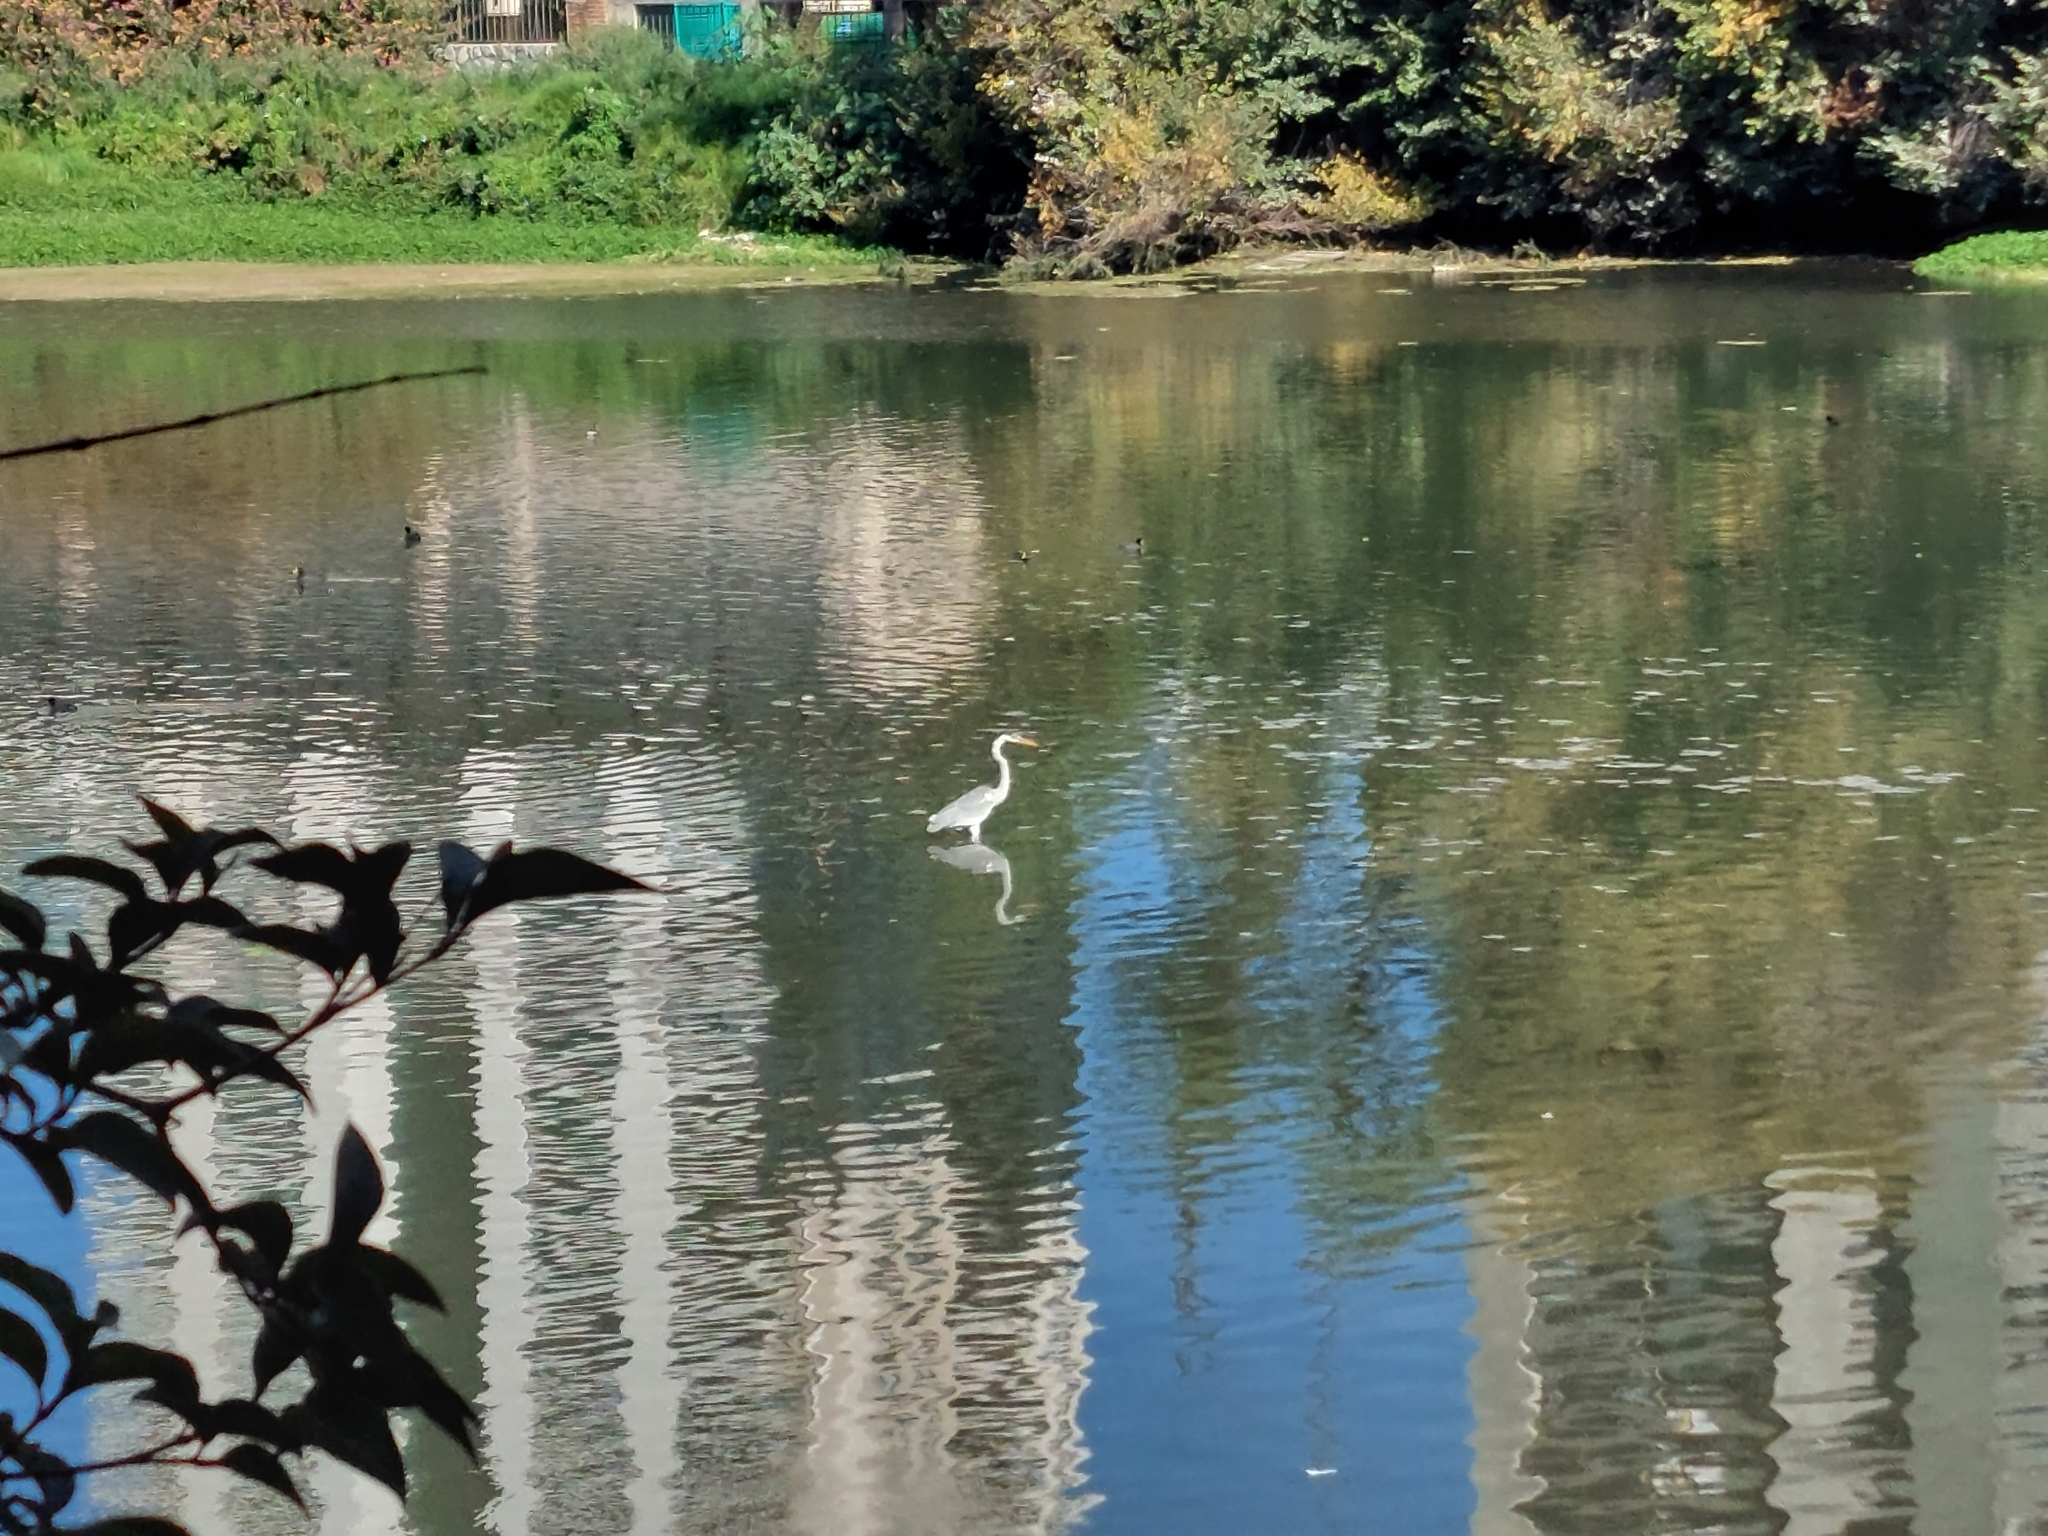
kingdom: Animalia
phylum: Chordata
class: Aves
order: Pelecaniformes
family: Ardeidae
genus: Ardea
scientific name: Ardea cocoi
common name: Cocoi heron
